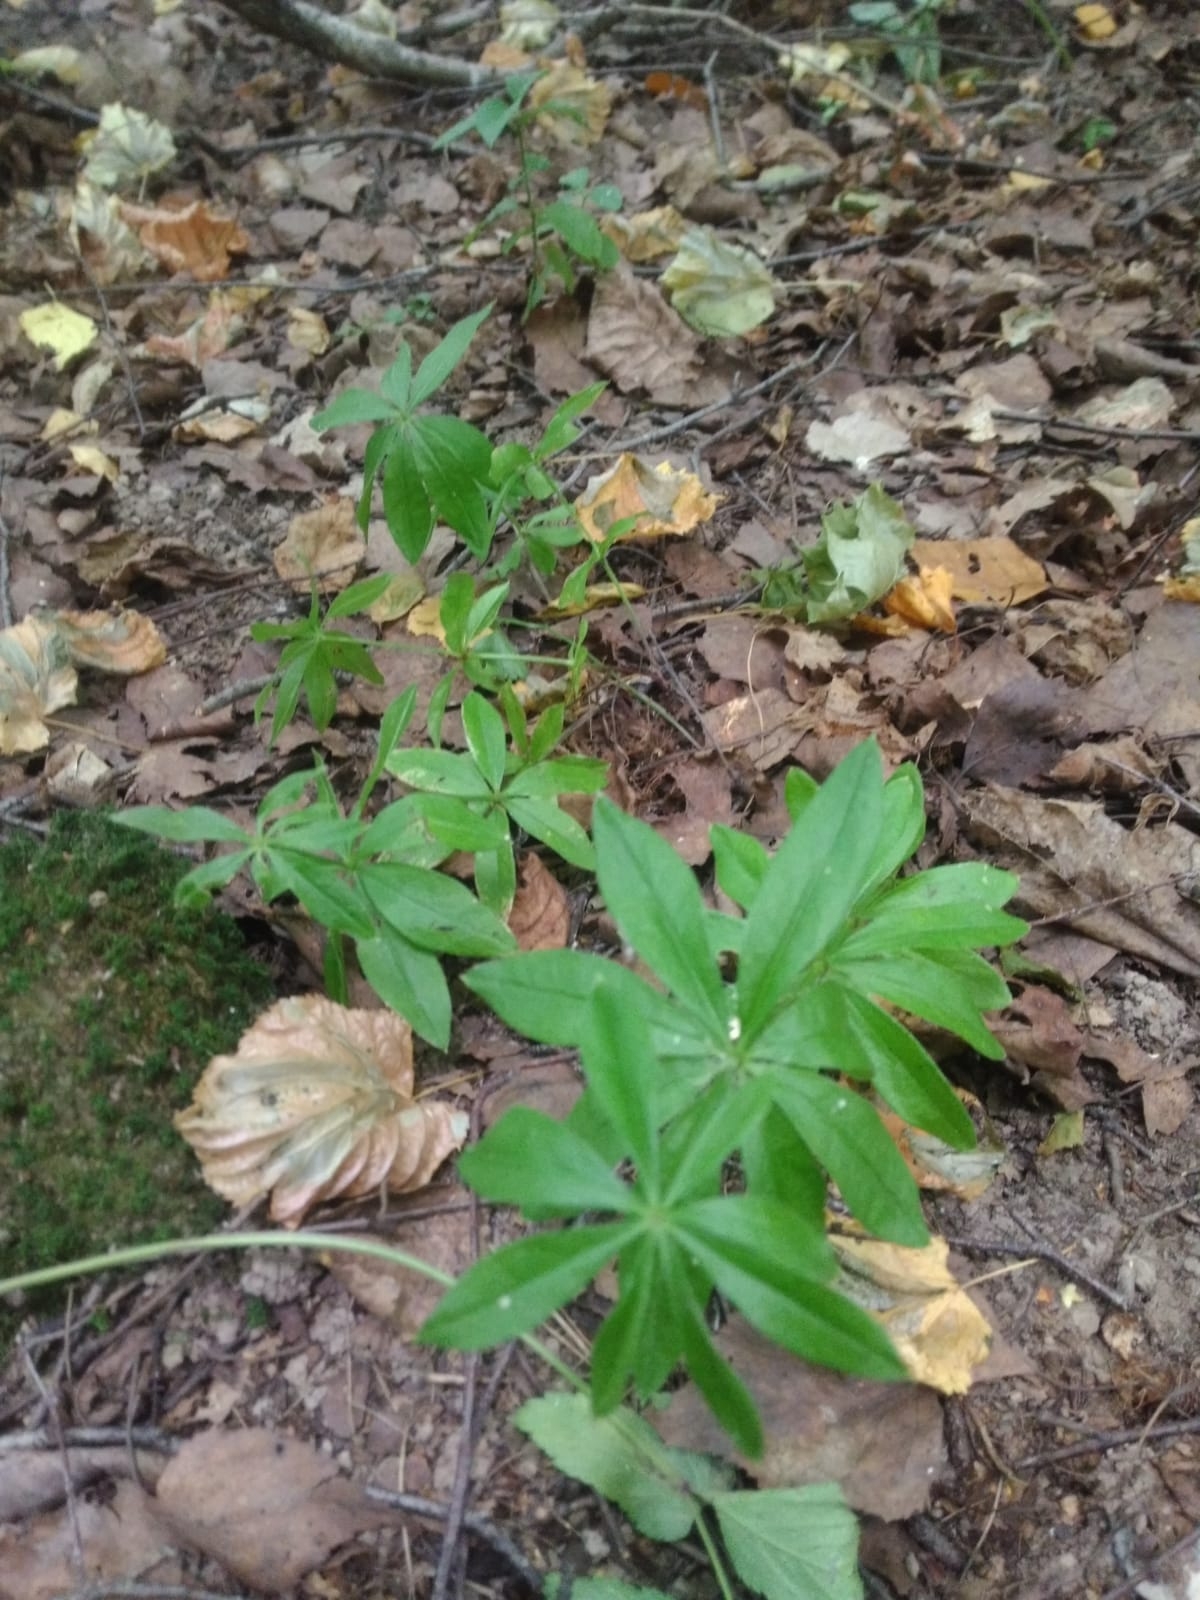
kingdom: Plantae
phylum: Tracheophyta
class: Magnoliopsida
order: Gentianales
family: Rubiaceae
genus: Galium
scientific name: Galium odoratum
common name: Sweet woodruff
